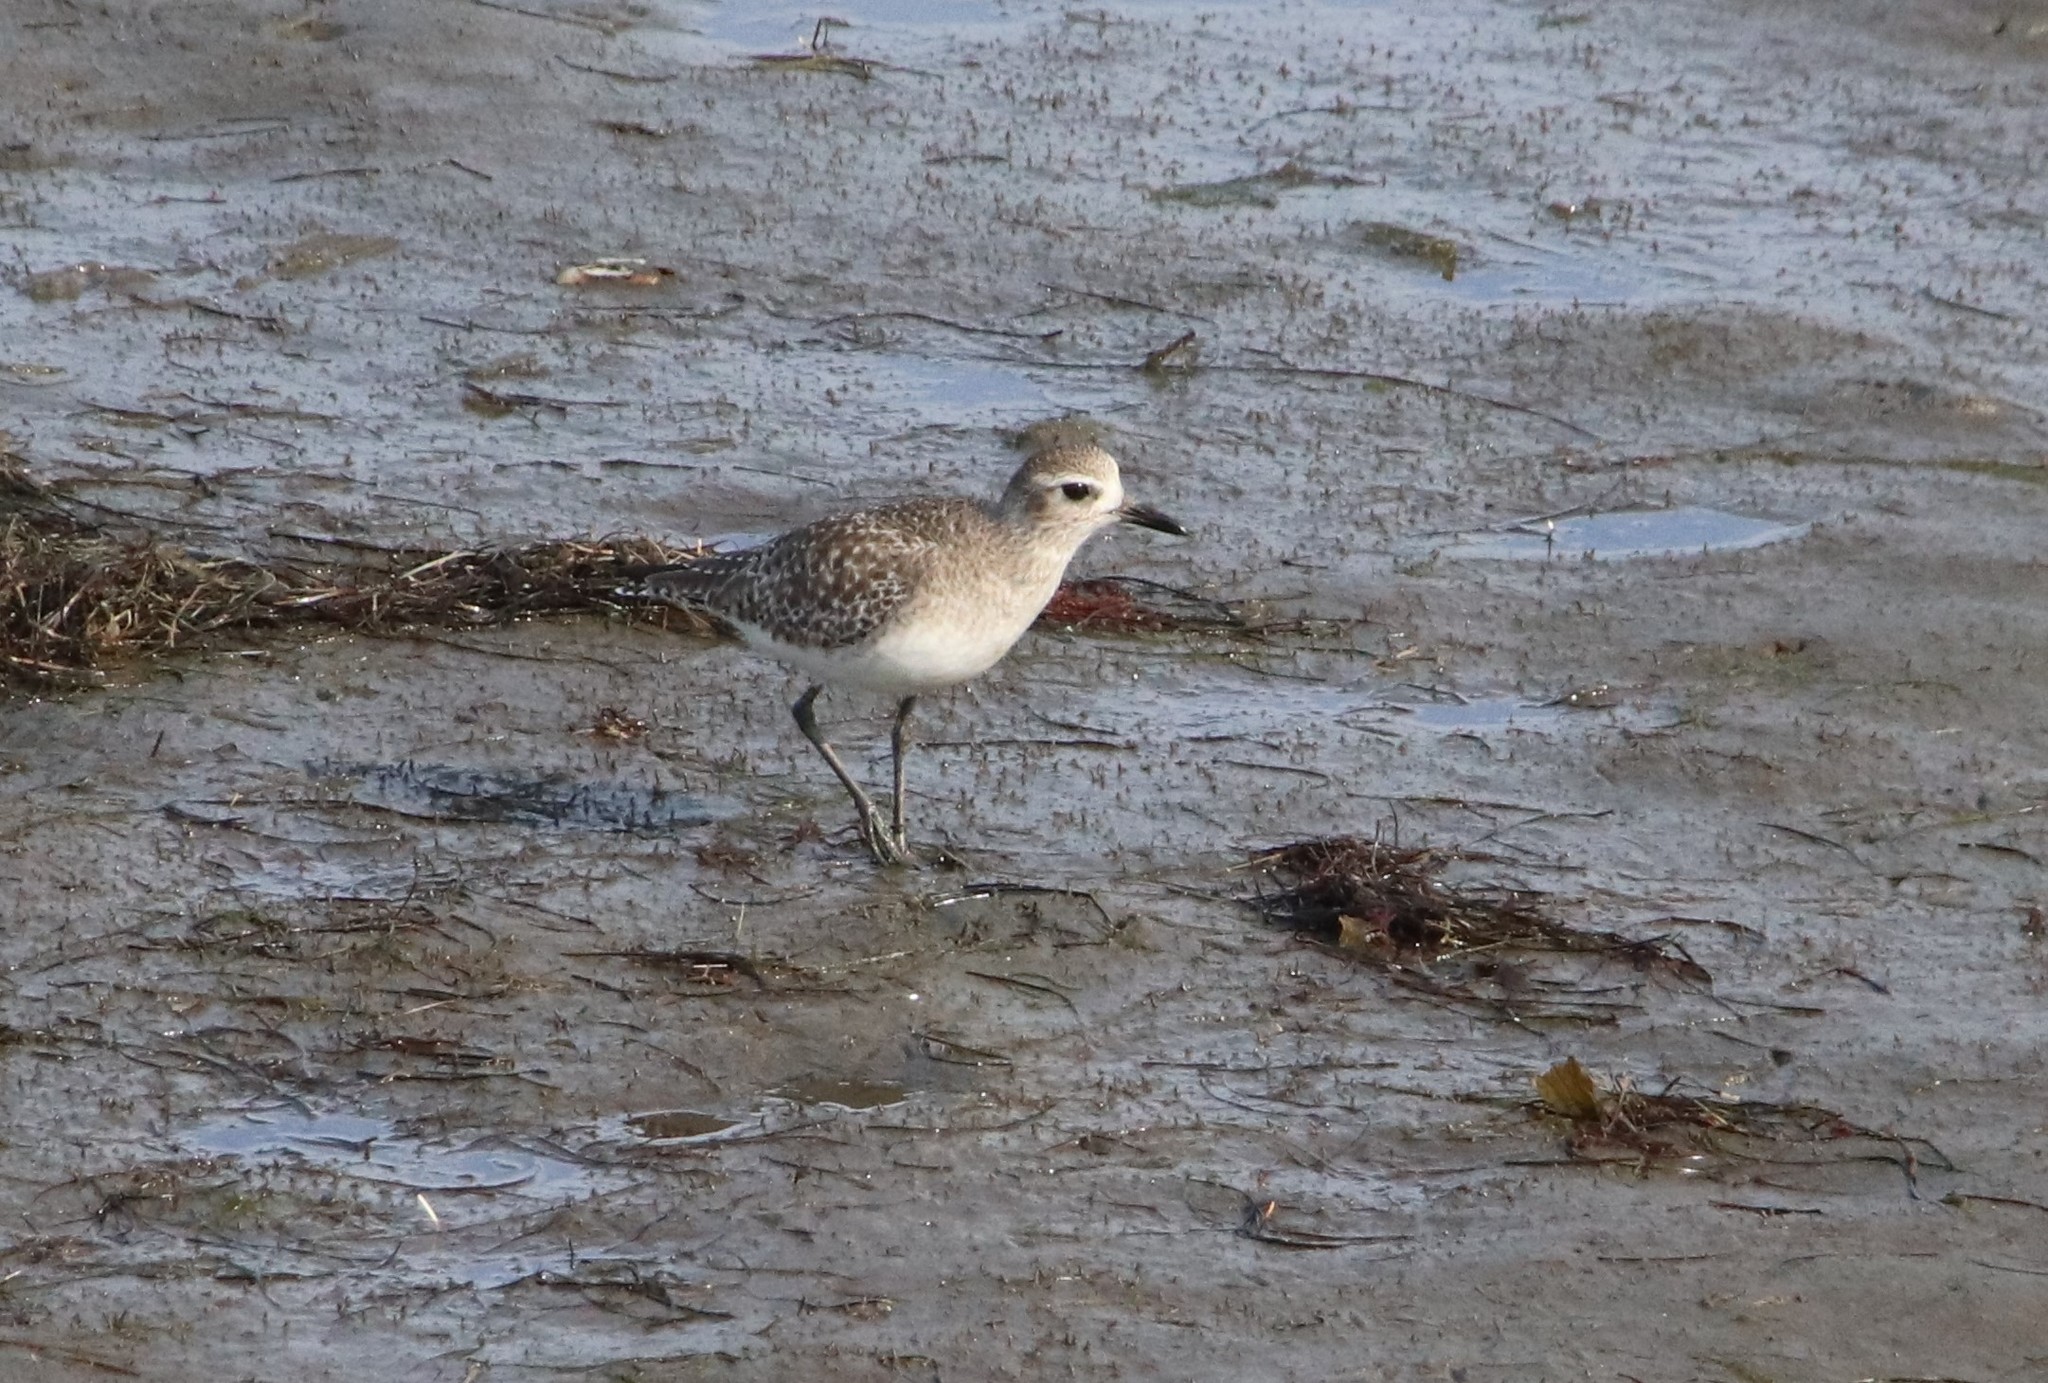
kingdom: Animalia
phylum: Chordata
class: Aves
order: Charadriiformes
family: Charadriidae
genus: Pluvialis
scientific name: Pluvialis squatarola
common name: Grey plover
